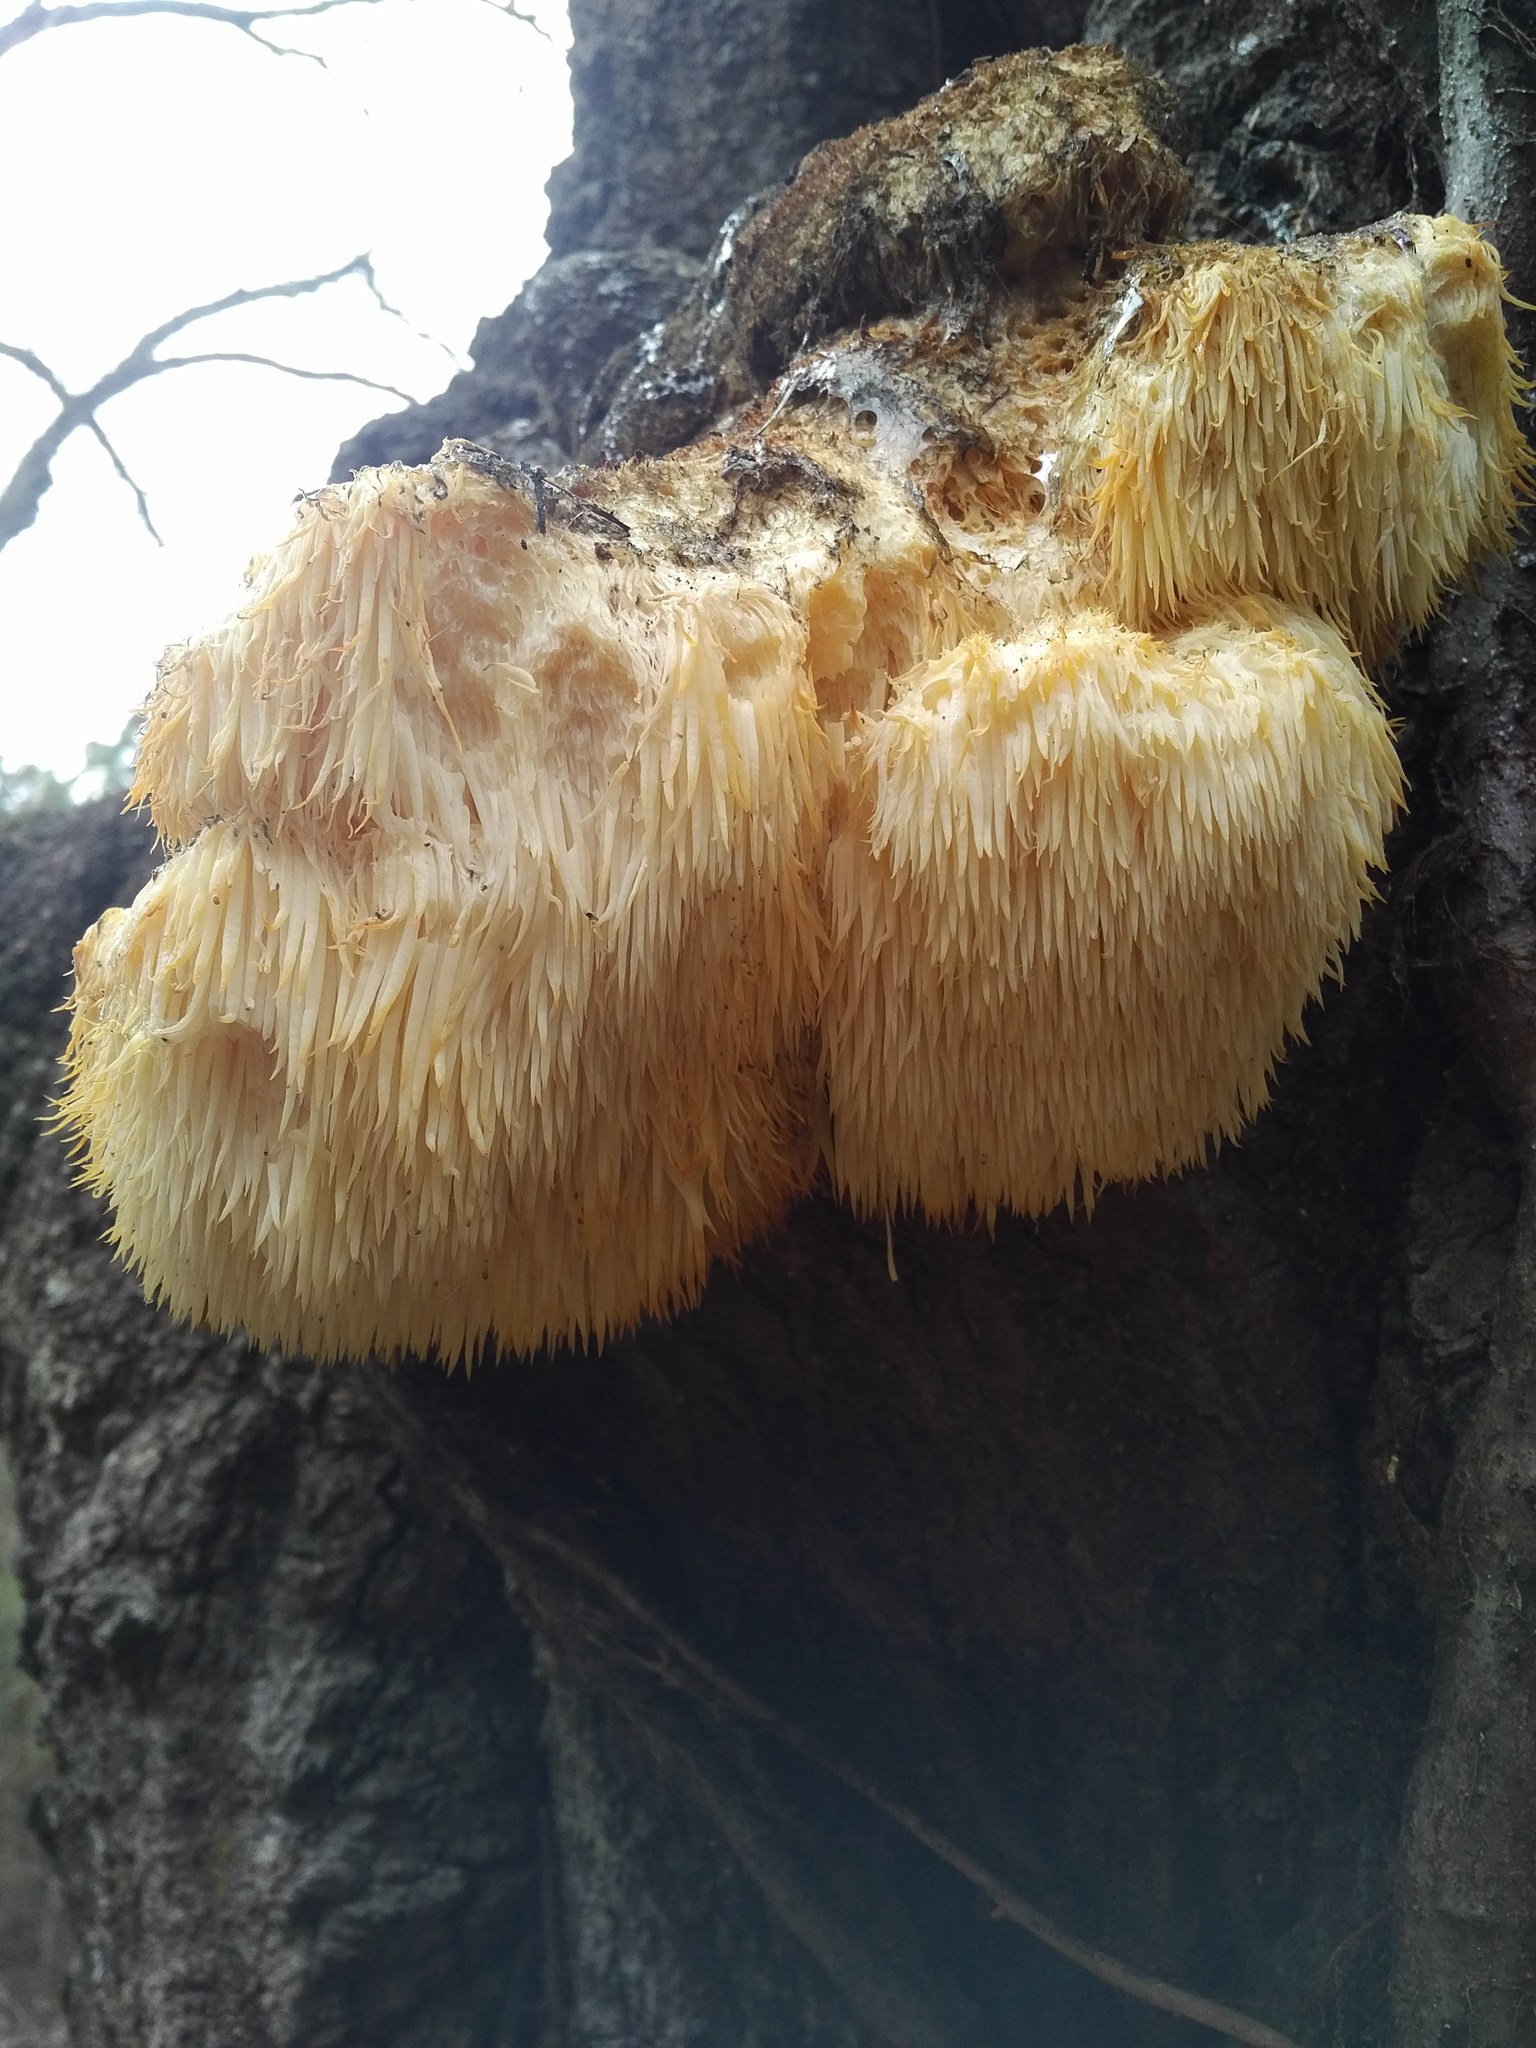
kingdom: Fungi
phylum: Basidiomycota
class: Agaricomycetes
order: Russulales
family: Hericiaceae
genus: Hericium
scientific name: Hericium erinaceus
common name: Bearded tooth
